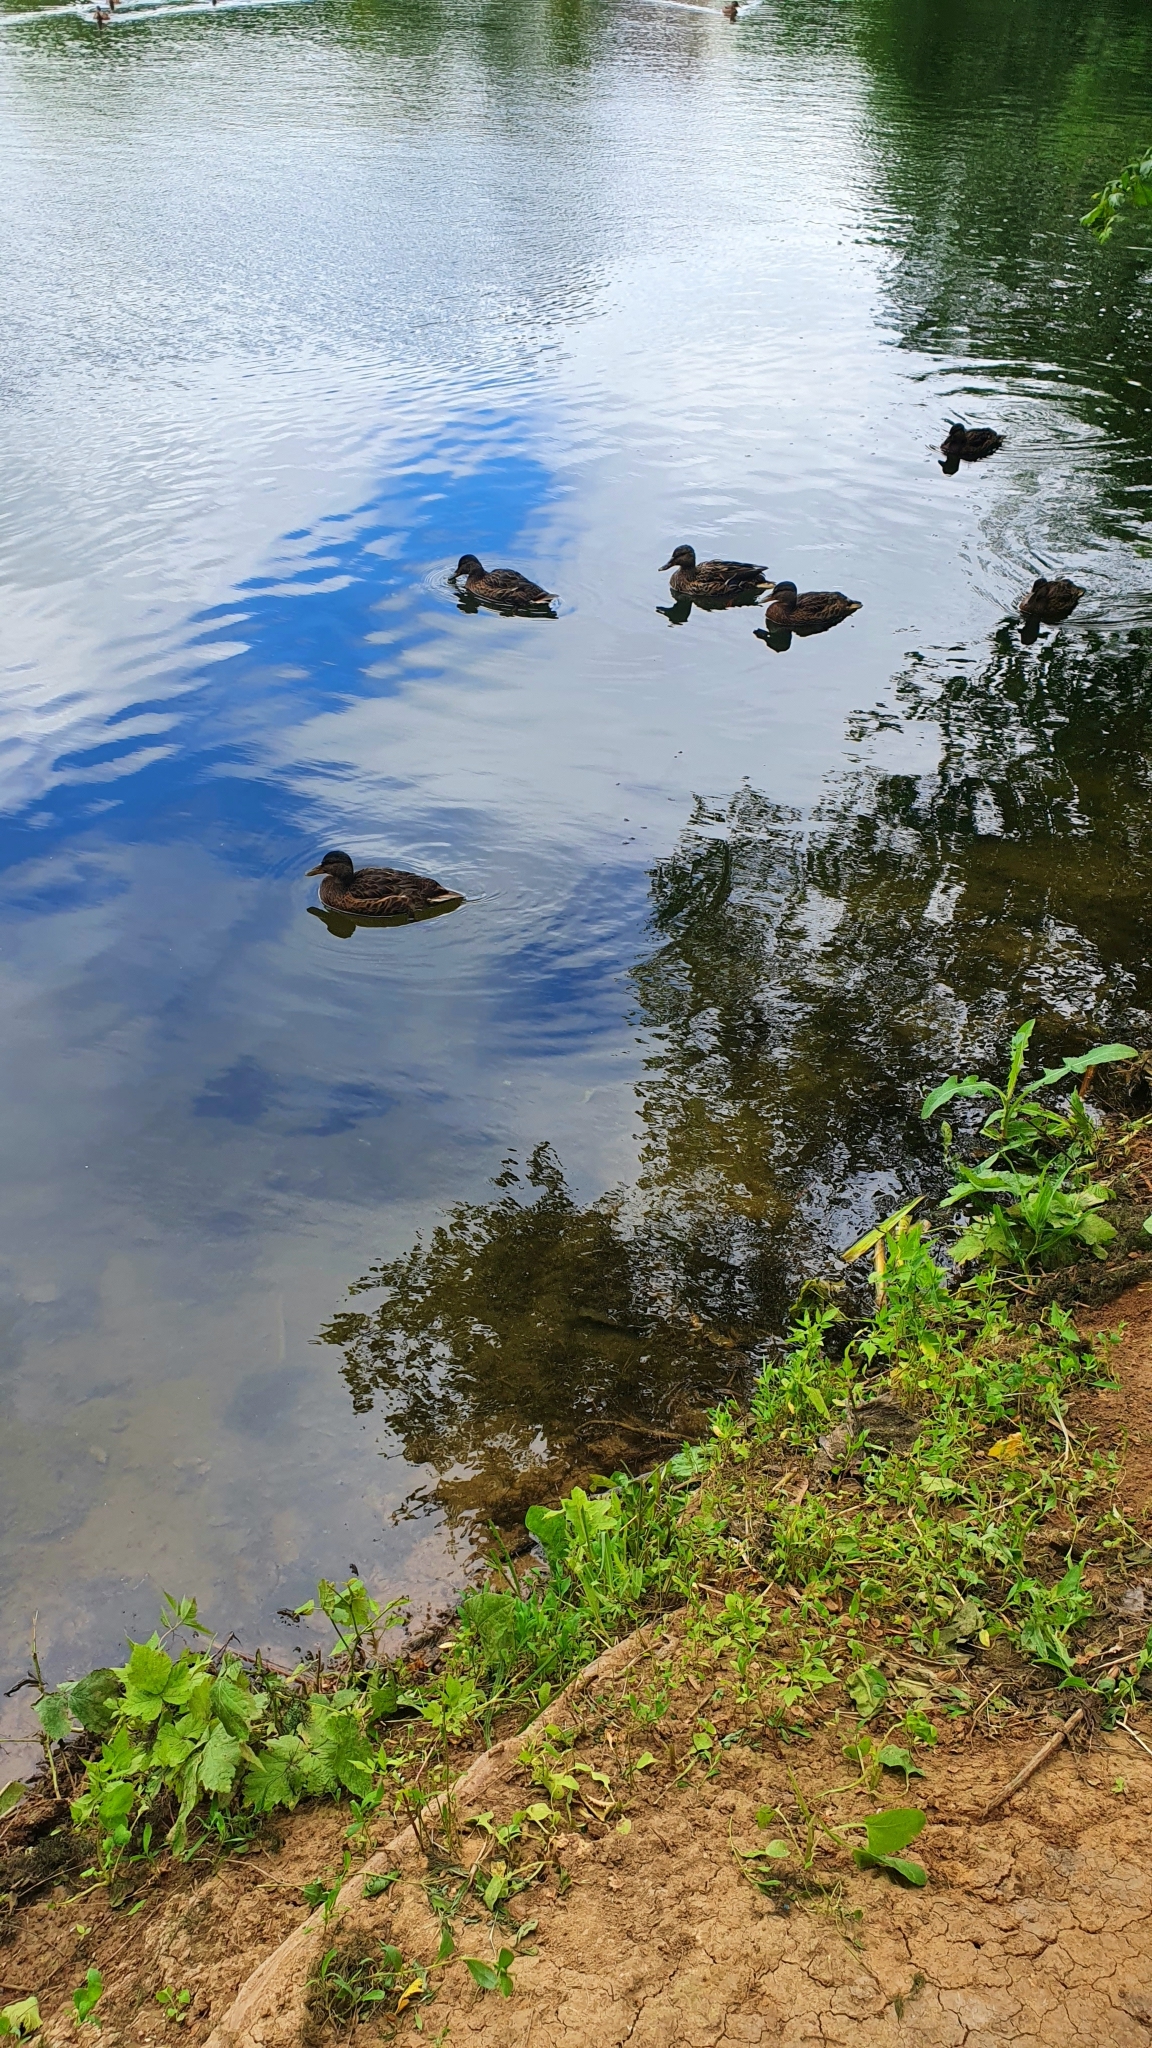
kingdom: Animalia
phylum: Chordata
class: Aves
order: Anseriformes
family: Anatidae
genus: Anas
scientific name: Anas platyrhynchos
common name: Mallard
